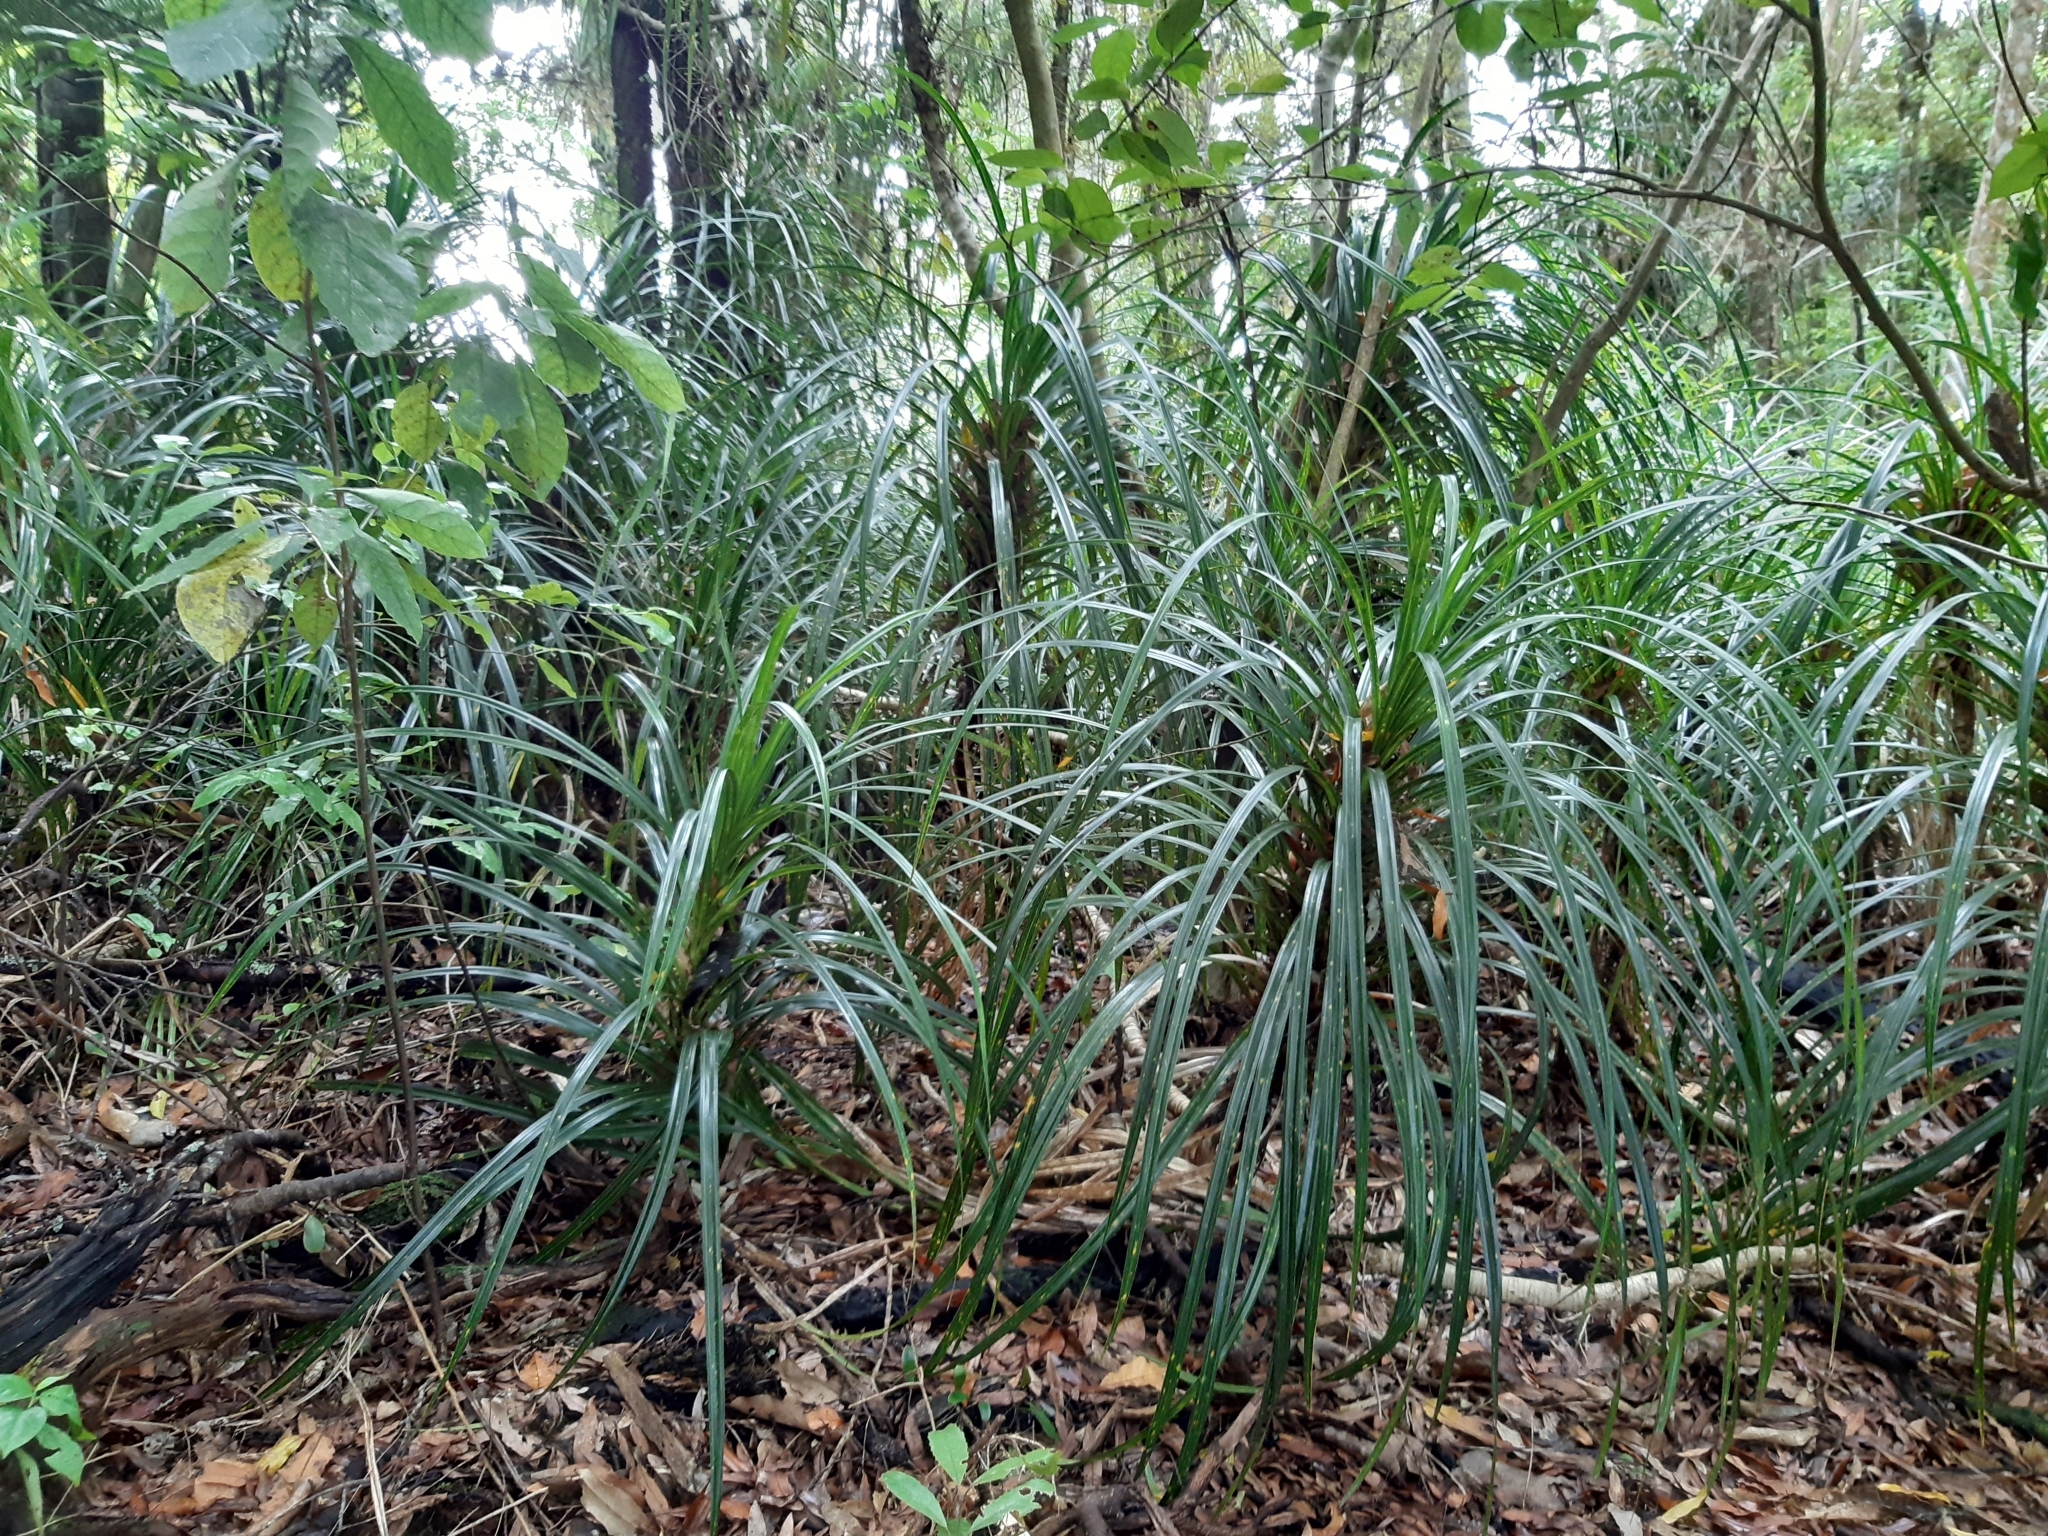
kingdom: Plantae
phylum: Tracheophyta
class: Liliopsida
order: Pandanales
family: Pandanaceae
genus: Freycinetia
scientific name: Freycinetia banksii
